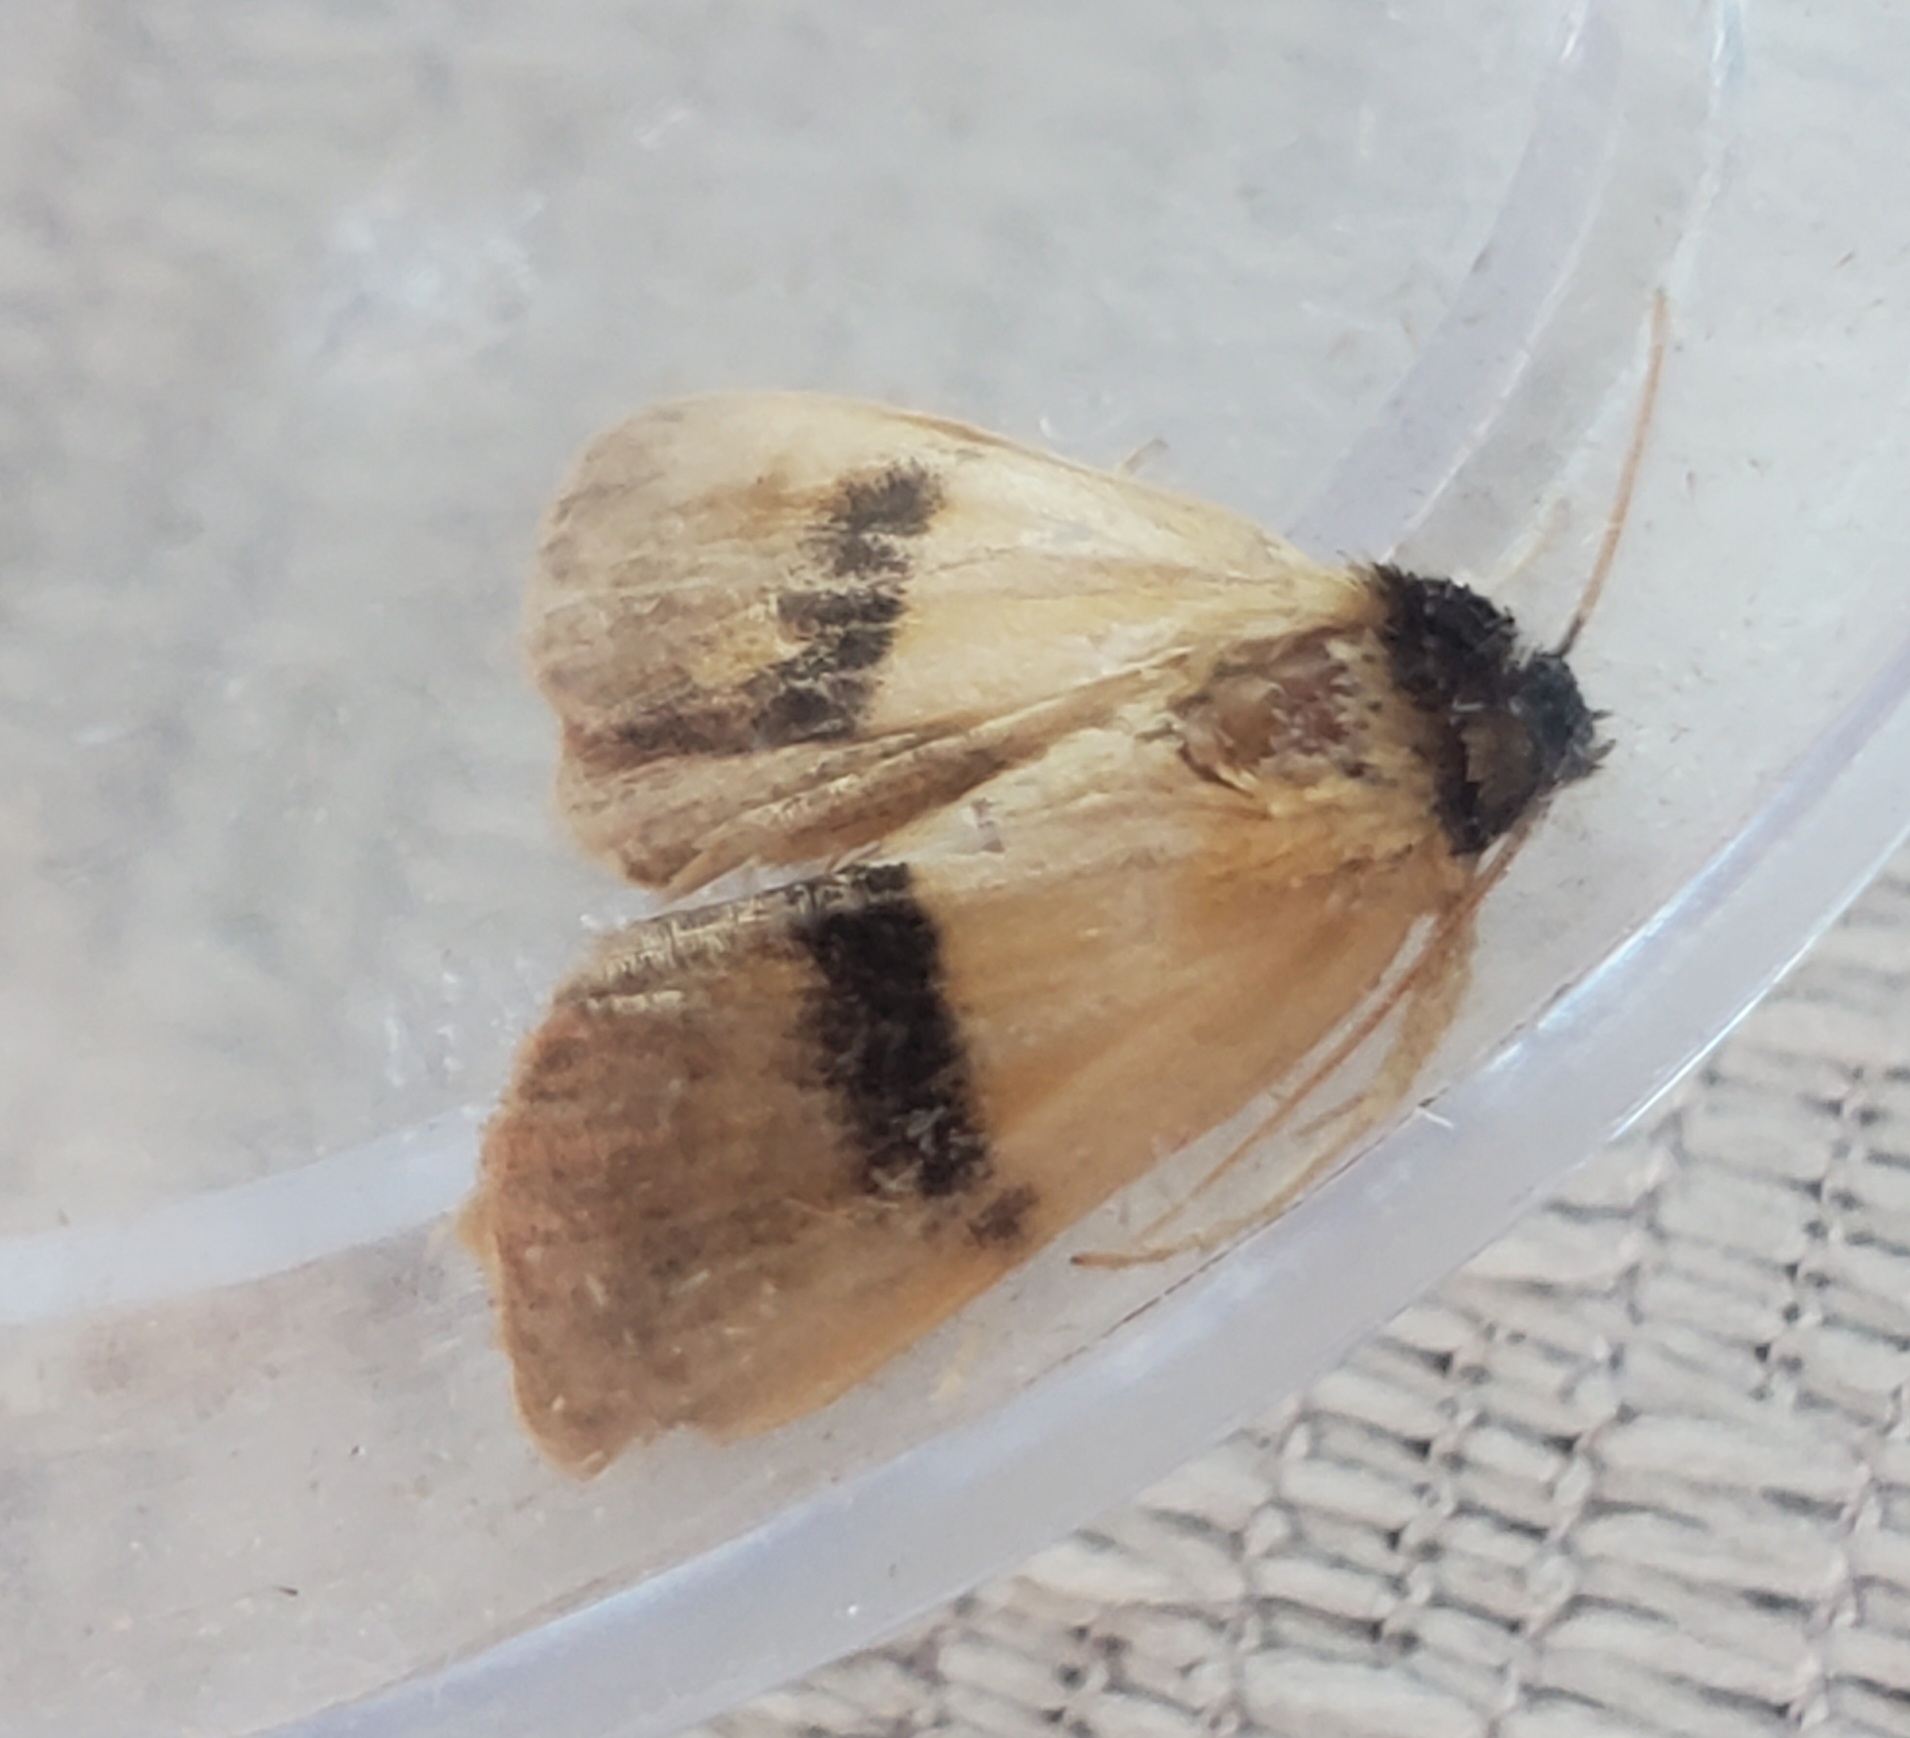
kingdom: Animalia
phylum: Arthropoda
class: Insecta
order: Lepidoptera
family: Noctuidae
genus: Exyra
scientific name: Exyra semicrocea
